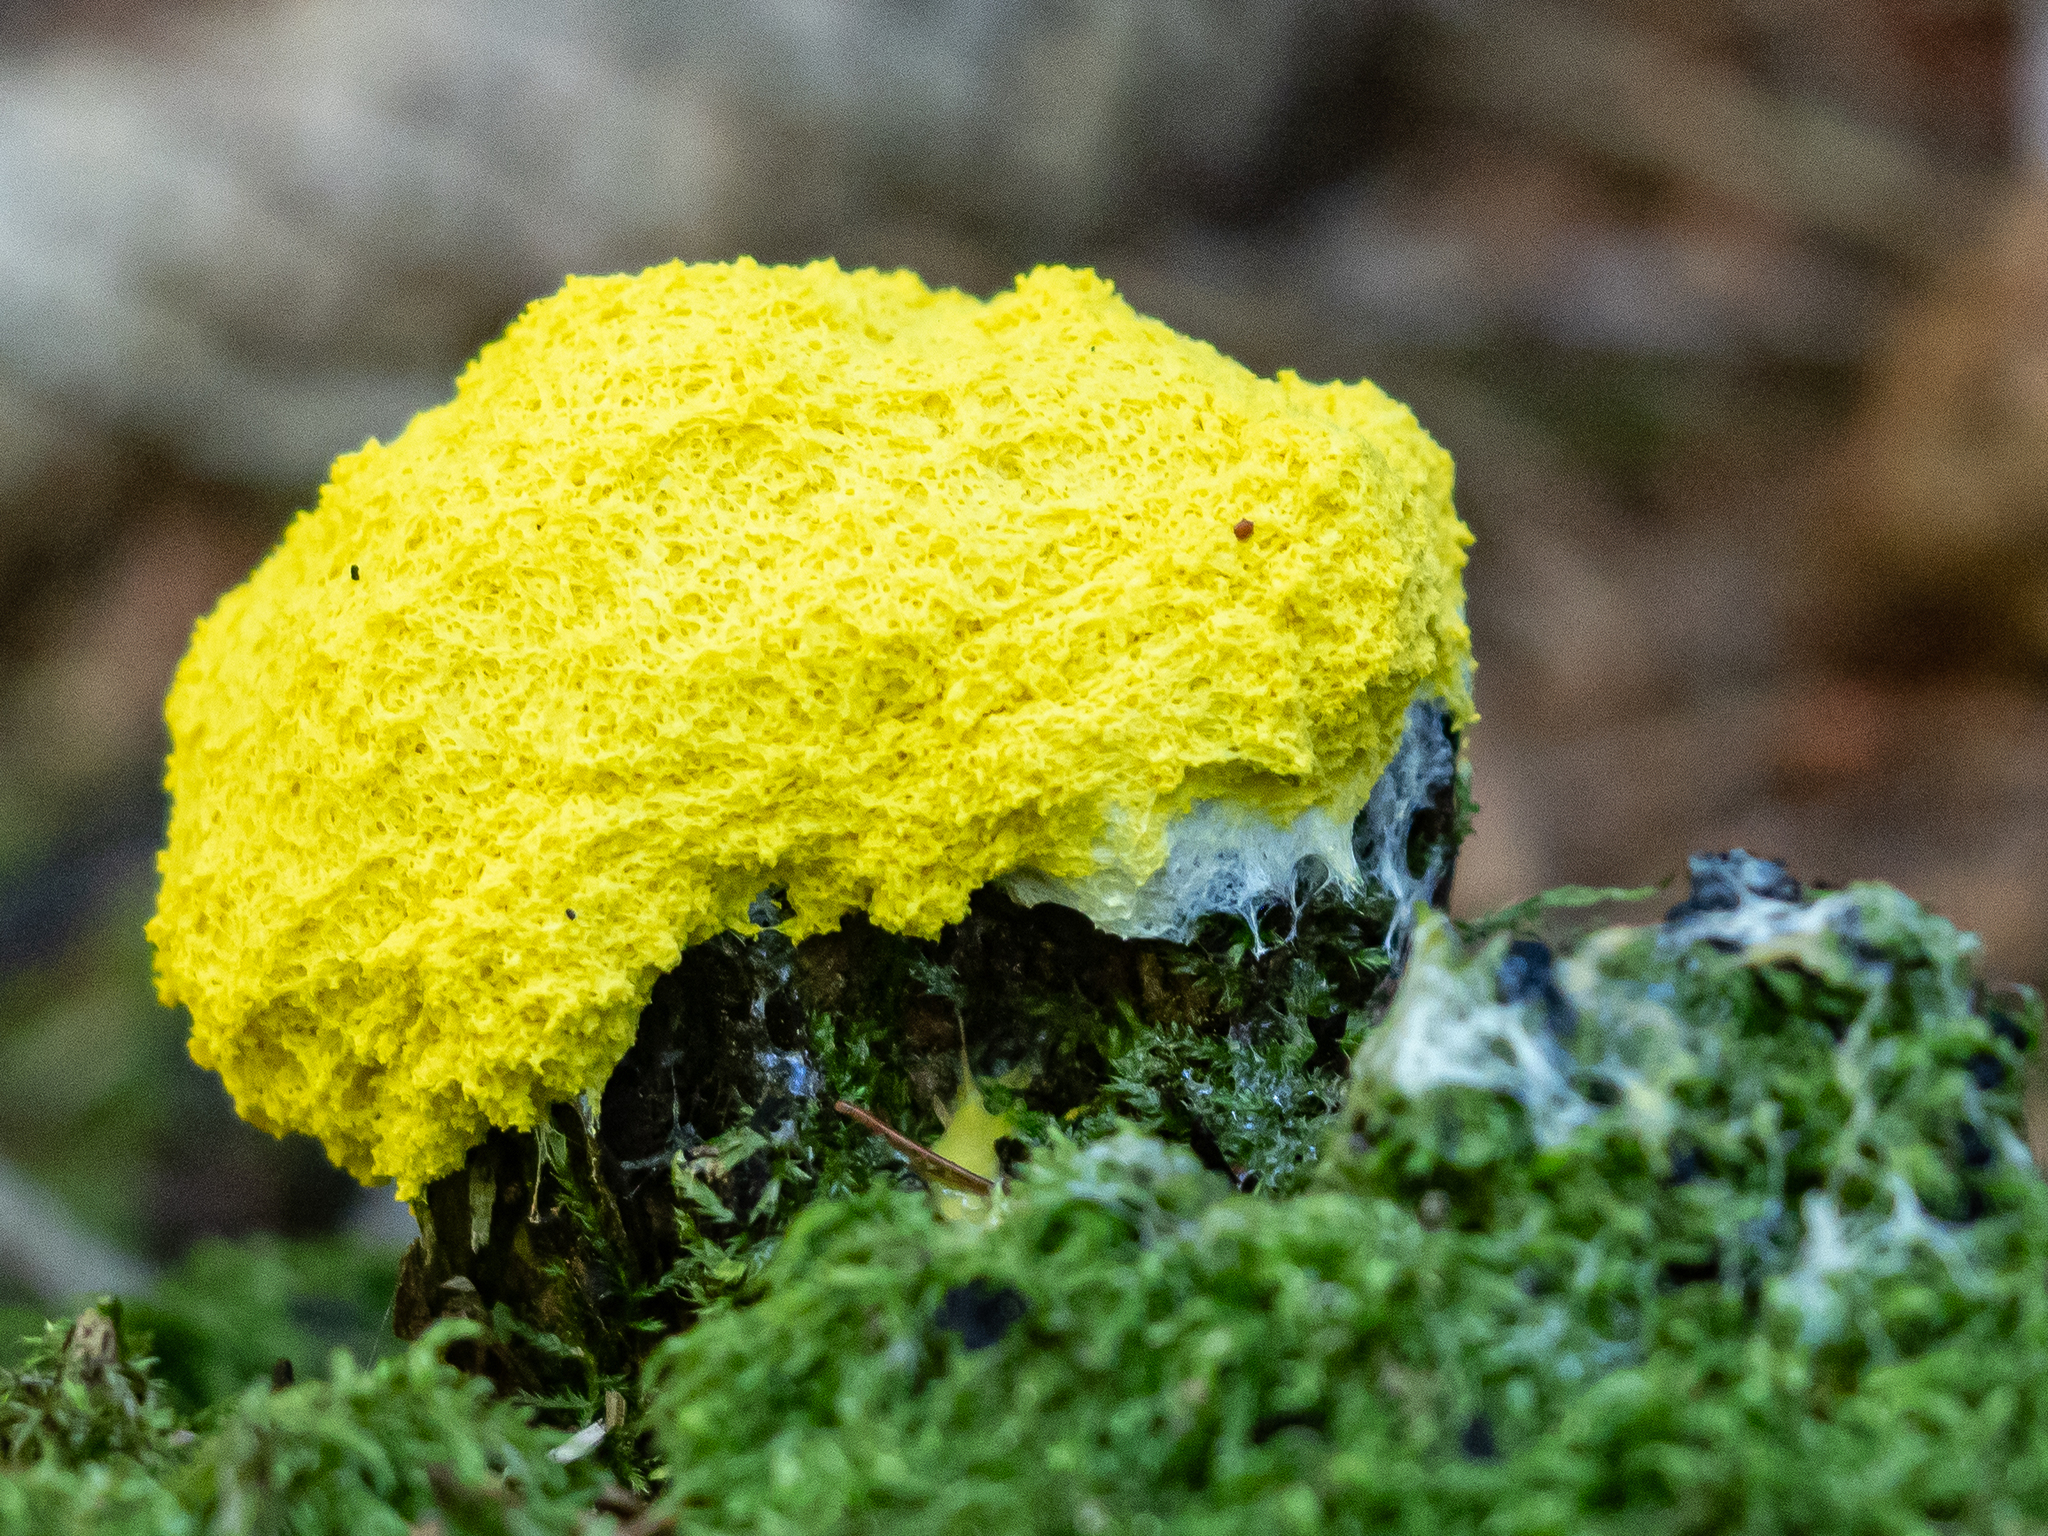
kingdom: Protozoa
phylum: Mycetozoa
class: Myxomycetes
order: Physarales
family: Physaraceae
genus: Fuligo
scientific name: Fuligo septica
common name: Dog vomit slime mold
